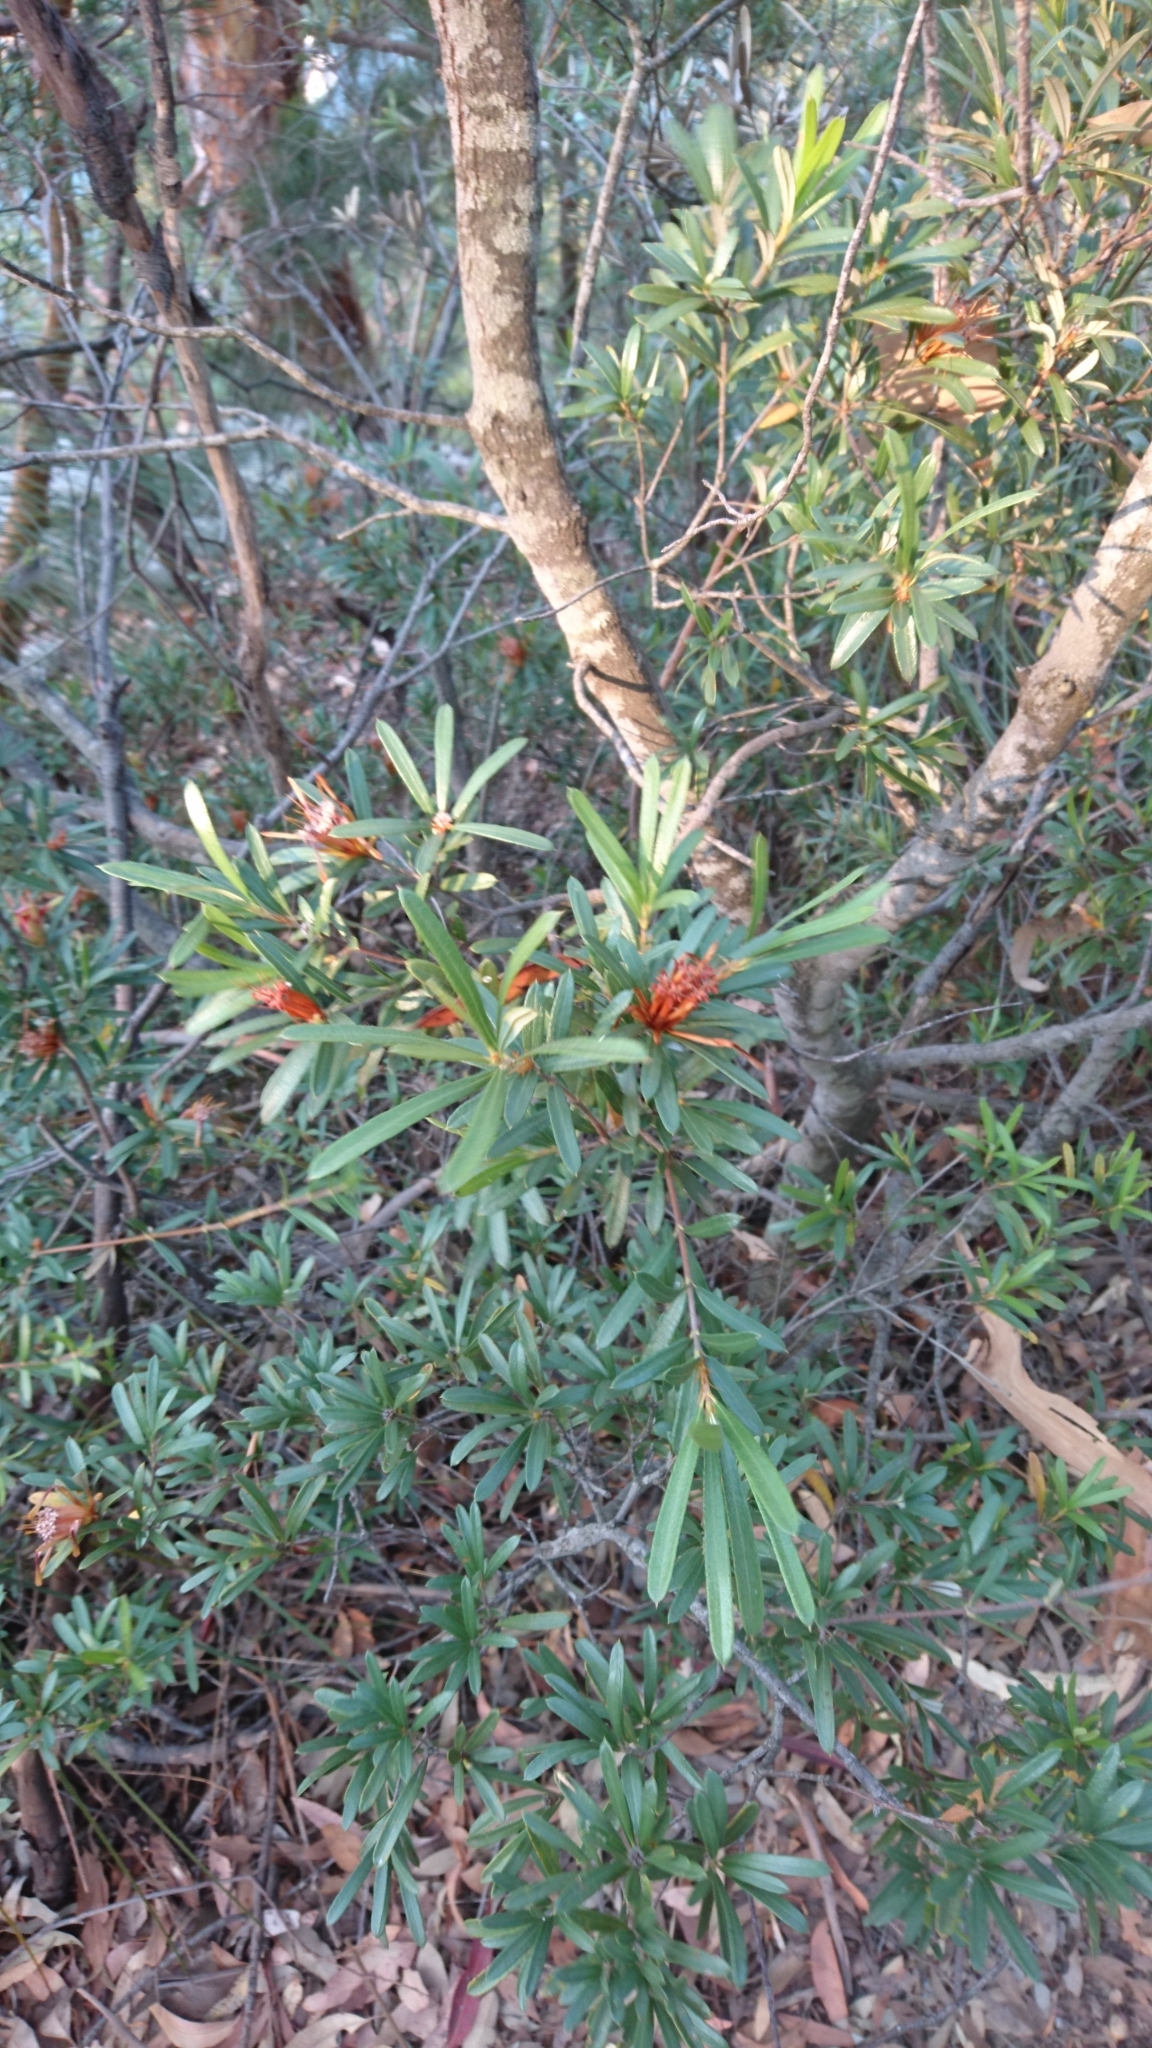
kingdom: Plantae
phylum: Tracheophyta
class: Magnoliopsida
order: Proteales
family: Proteaceae
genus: Lambertia
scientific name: Lambertia formosa
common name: Mountain-devil
